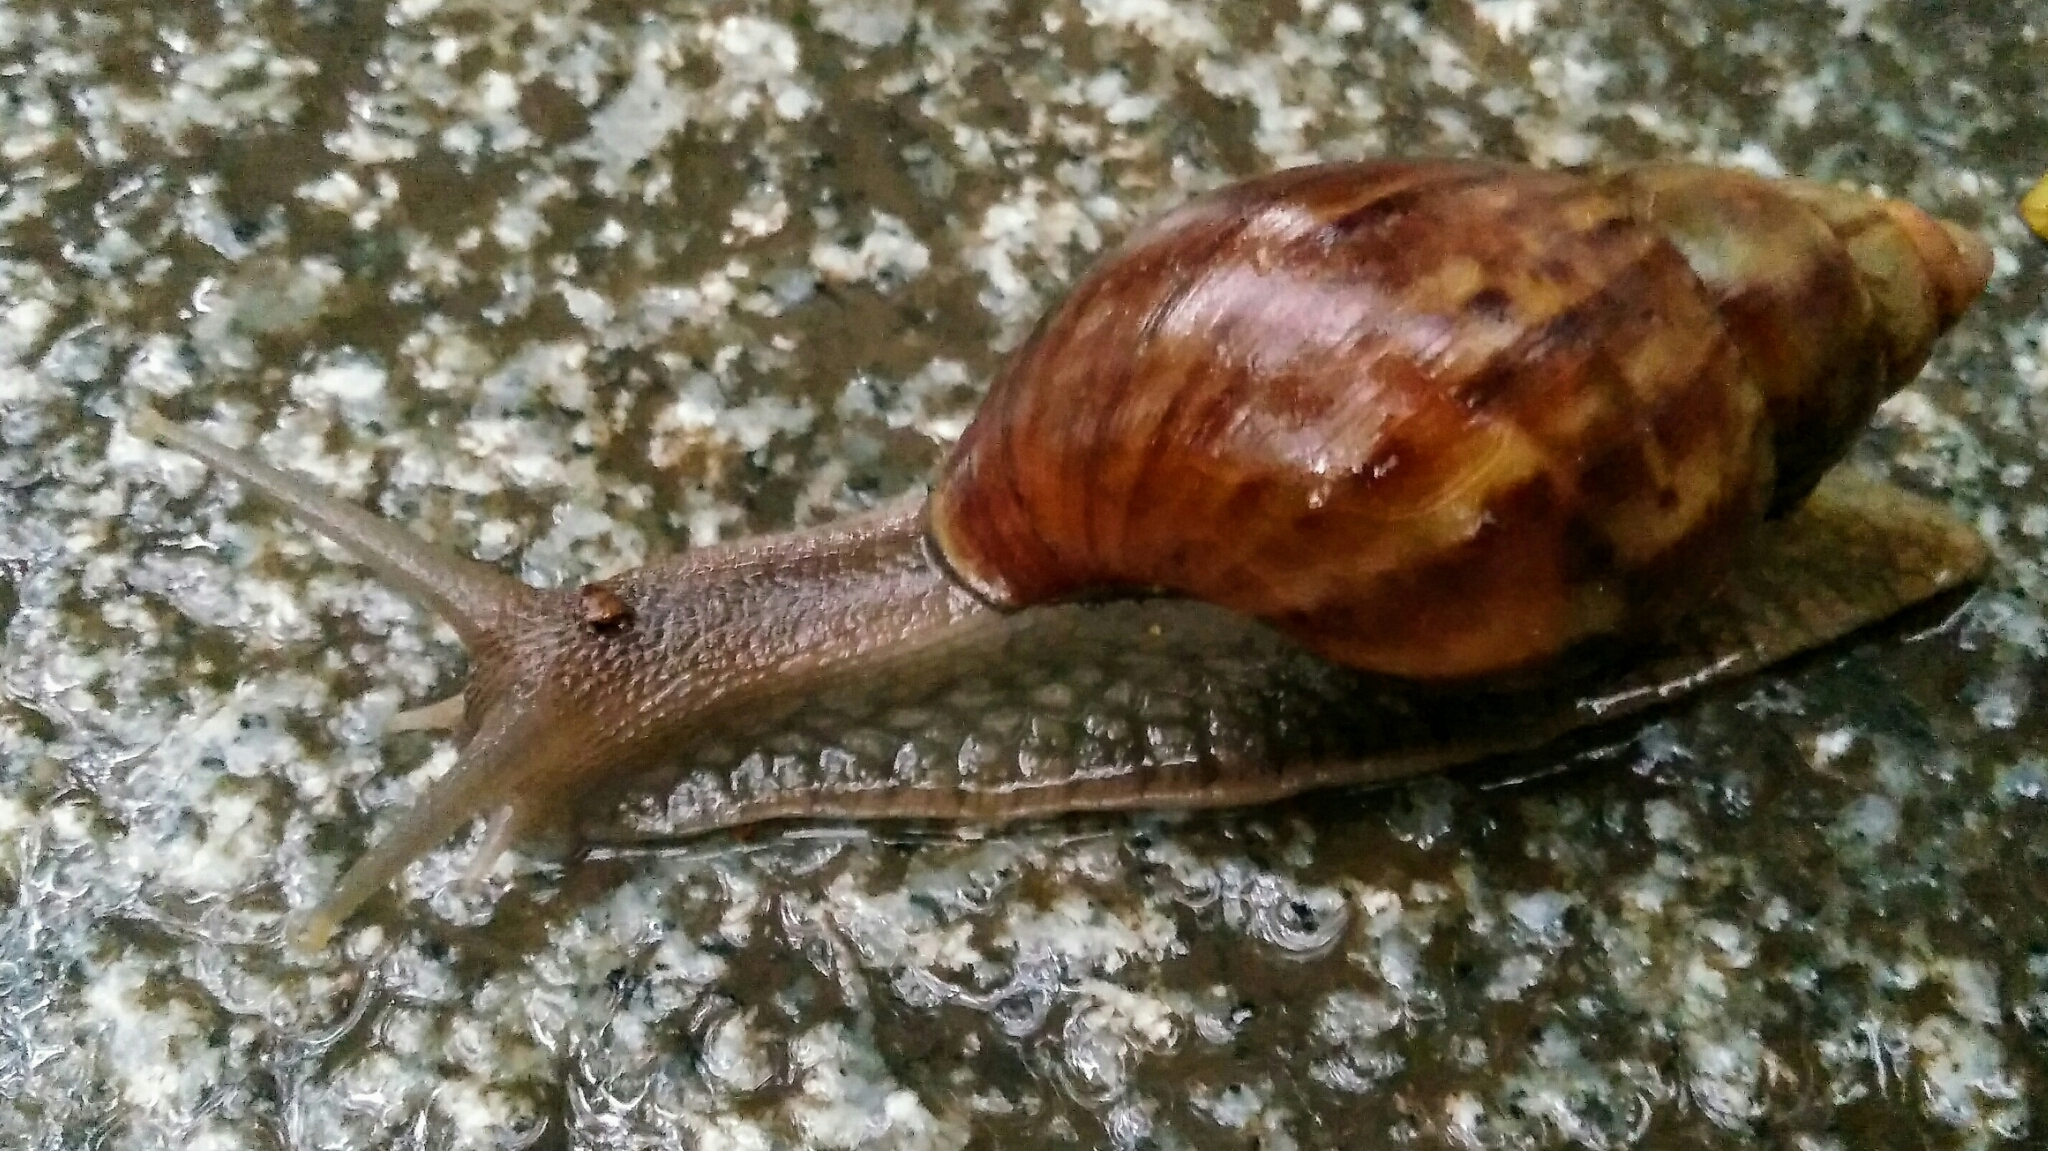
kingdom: Animalia
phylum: Mollusca
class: Gastropoda
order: Stylommatophora
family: Achatinidae
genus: Lissachatina
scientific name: Lissachatina fulica
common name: Giant african snail
